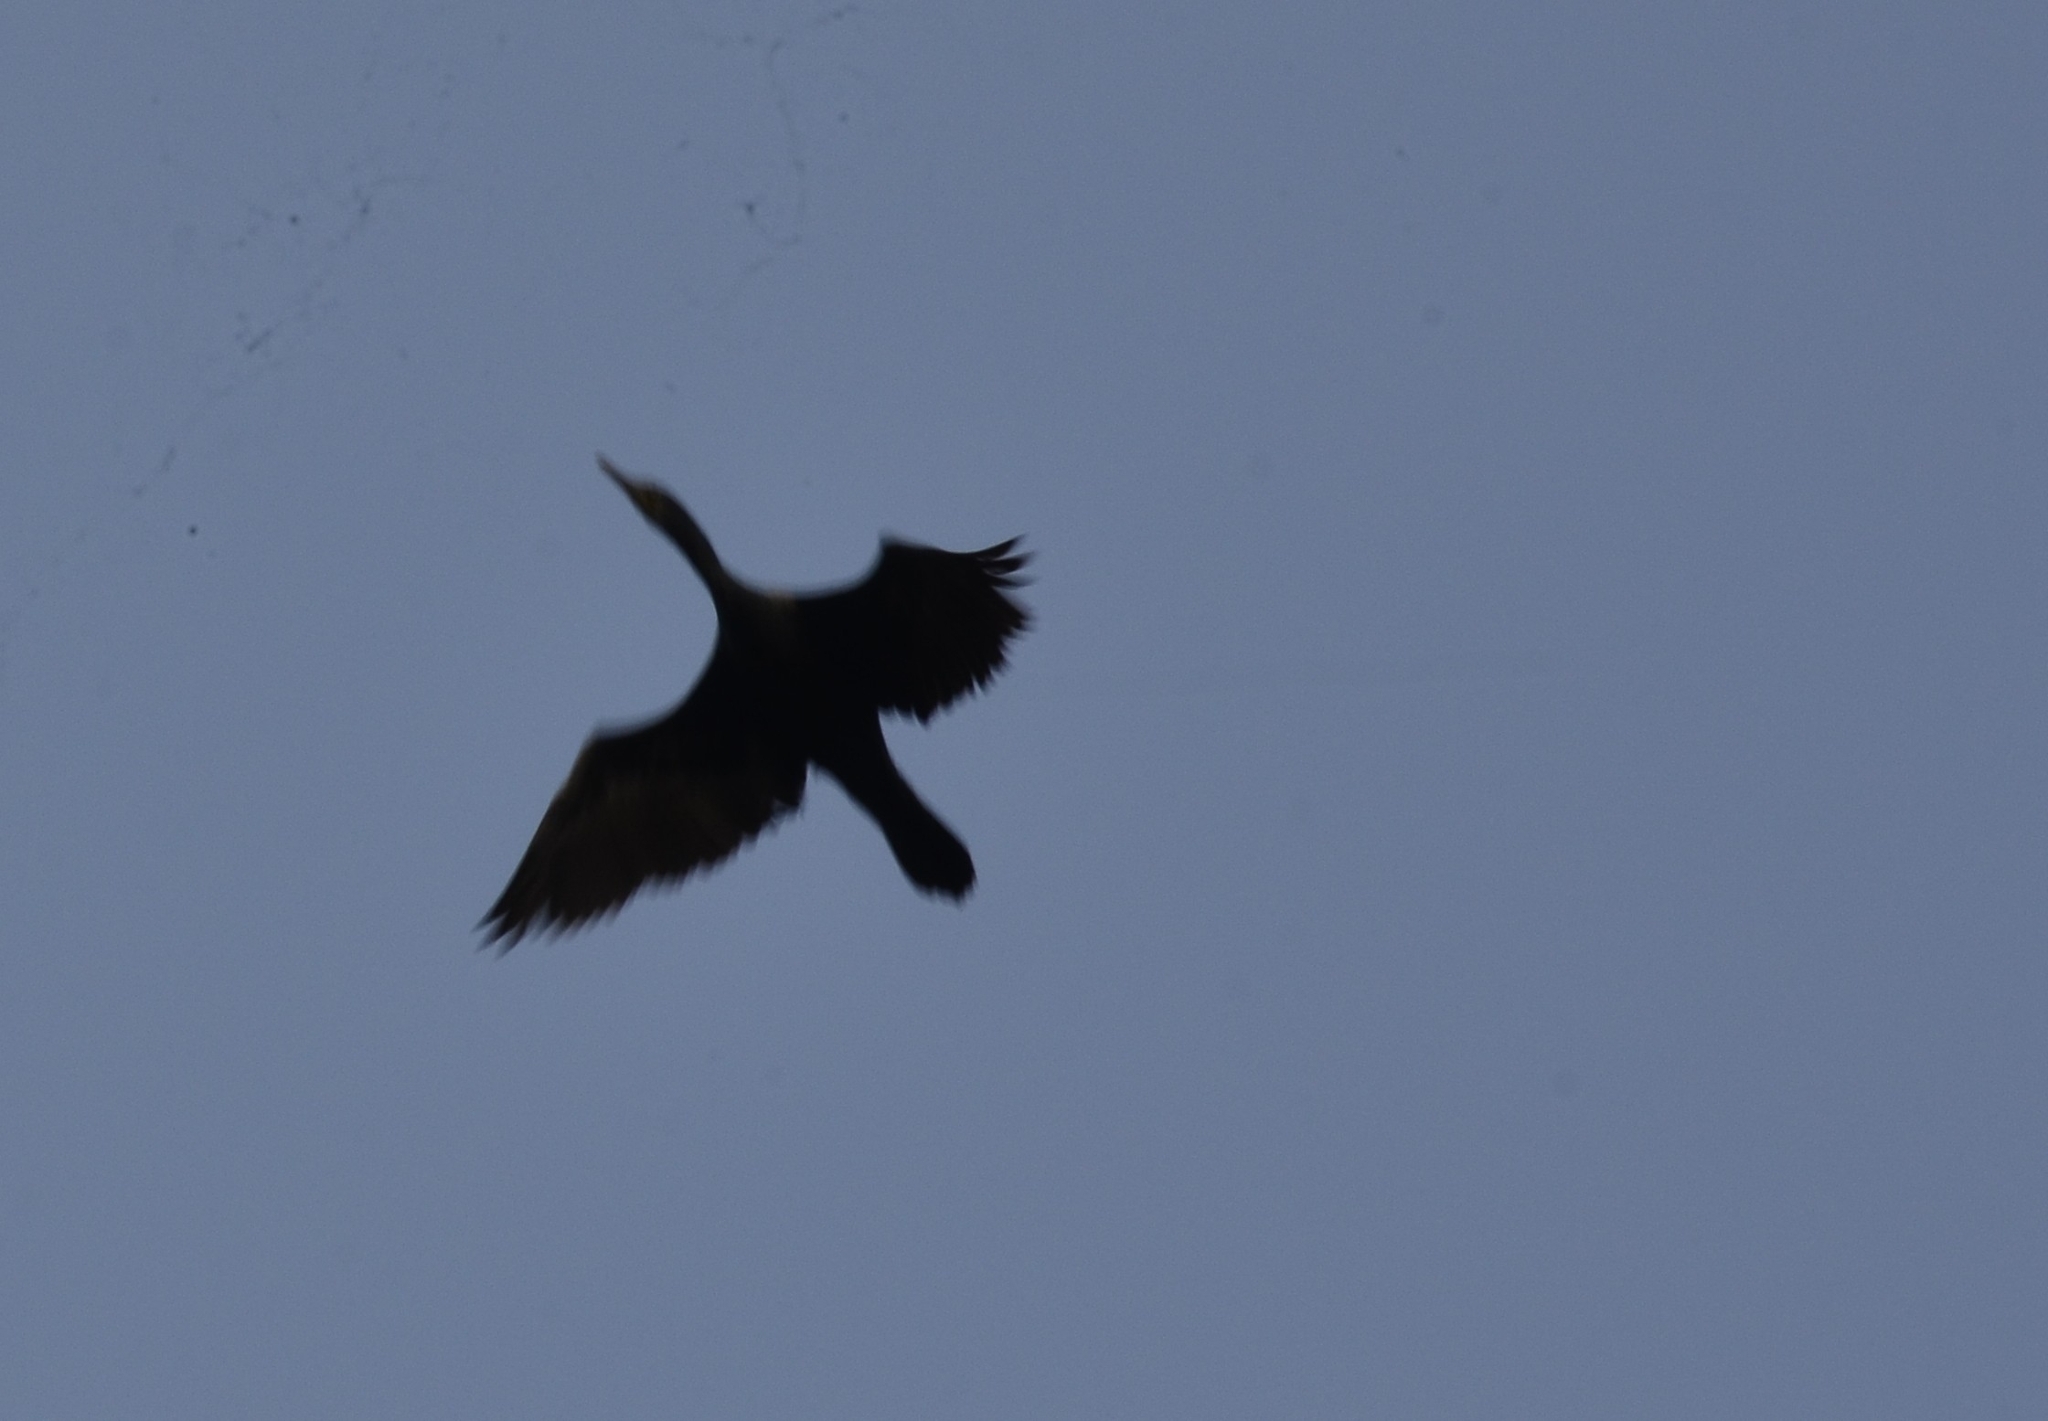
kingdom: Animalia
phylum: Chordata
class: Aves
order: Suliformes
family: Phalacrocoracidae
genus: Phalacrocorax
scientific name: Phalacrocorax fuscicollis
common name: Indian cormorant
